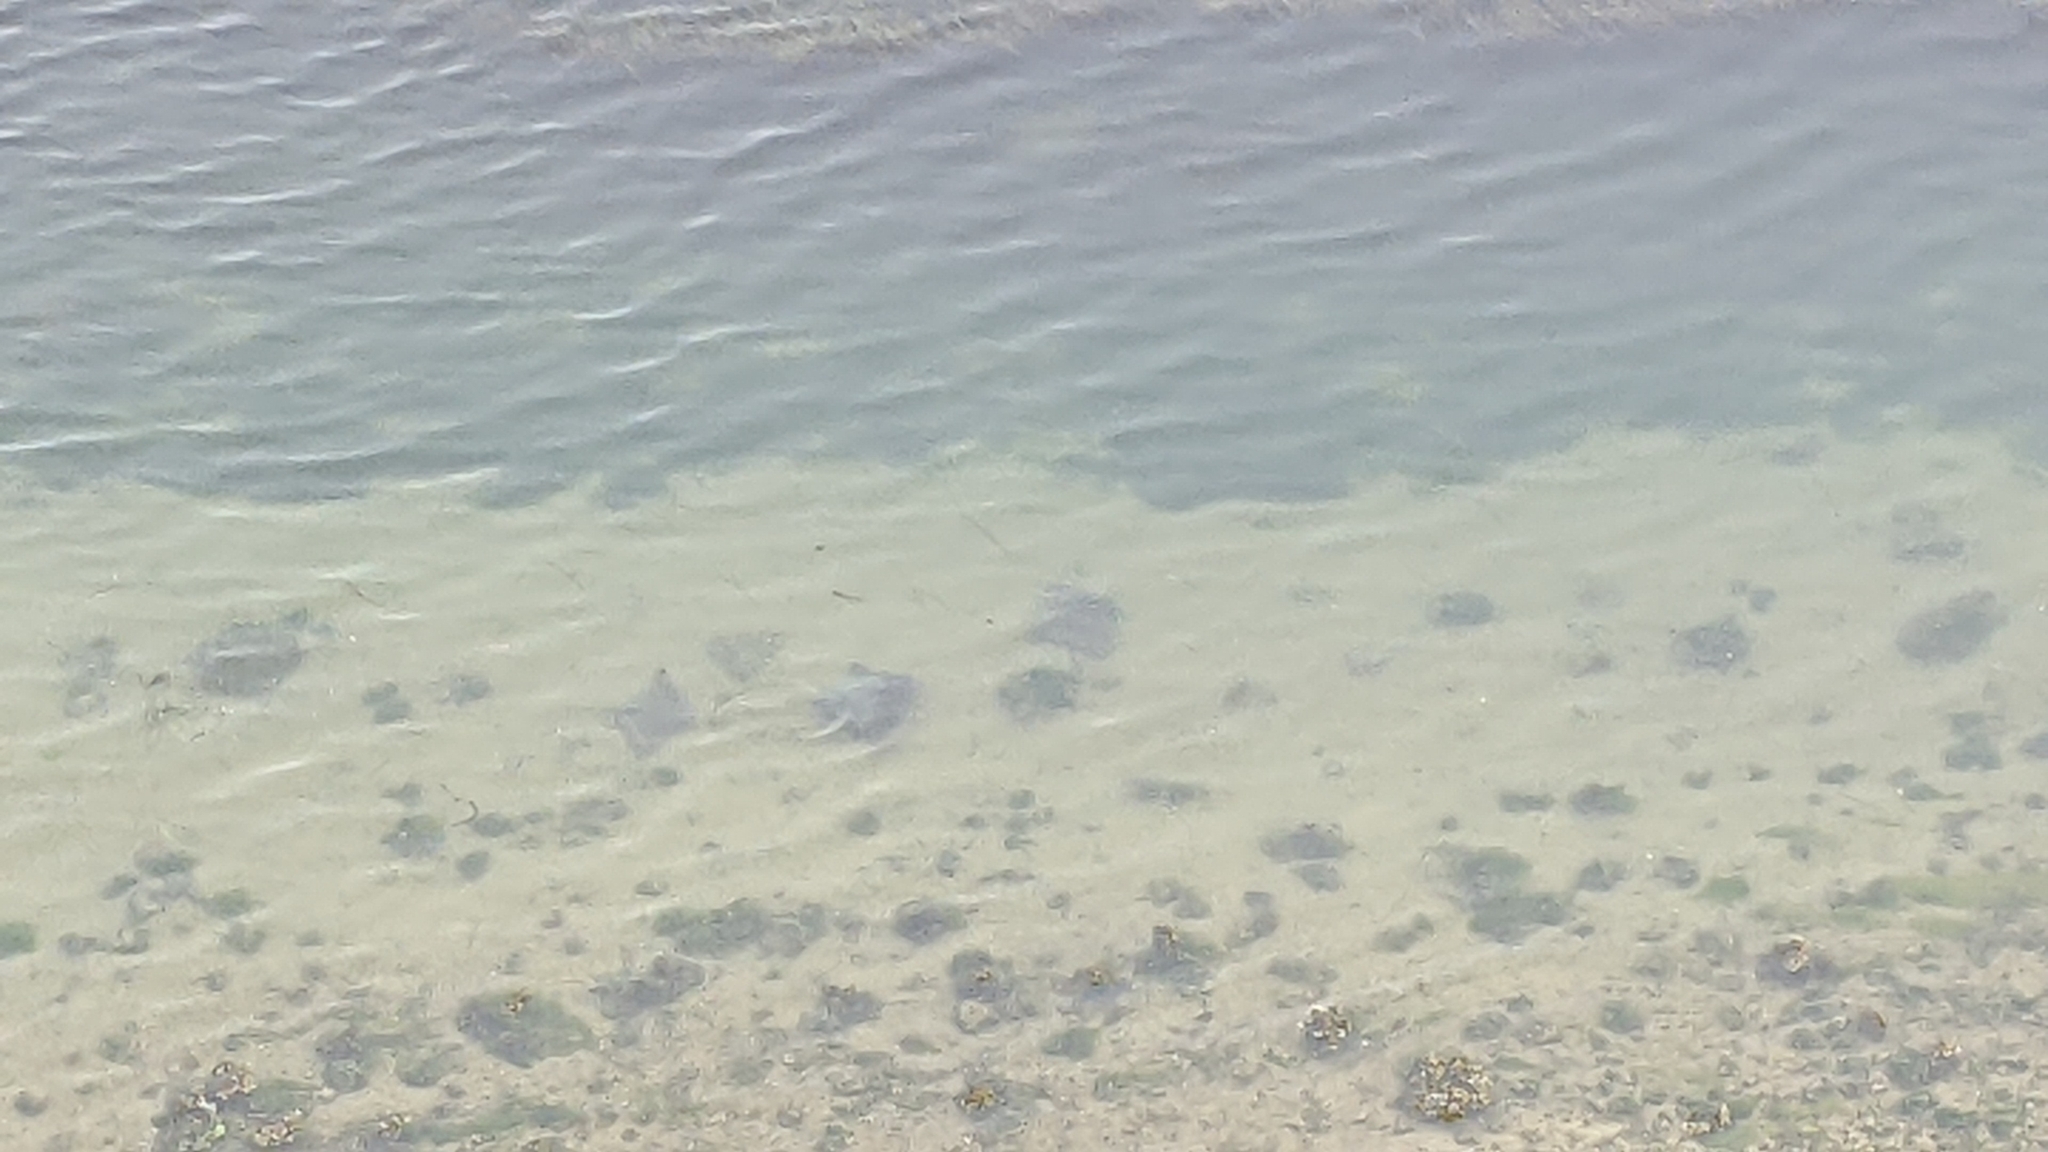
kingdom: Animalia
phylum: Chordata
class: Elasmobranchii
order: Myliobatiformes
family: Myliobatidae
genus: Myliobatis
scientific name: Myliobatis californica
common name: Bat ray
